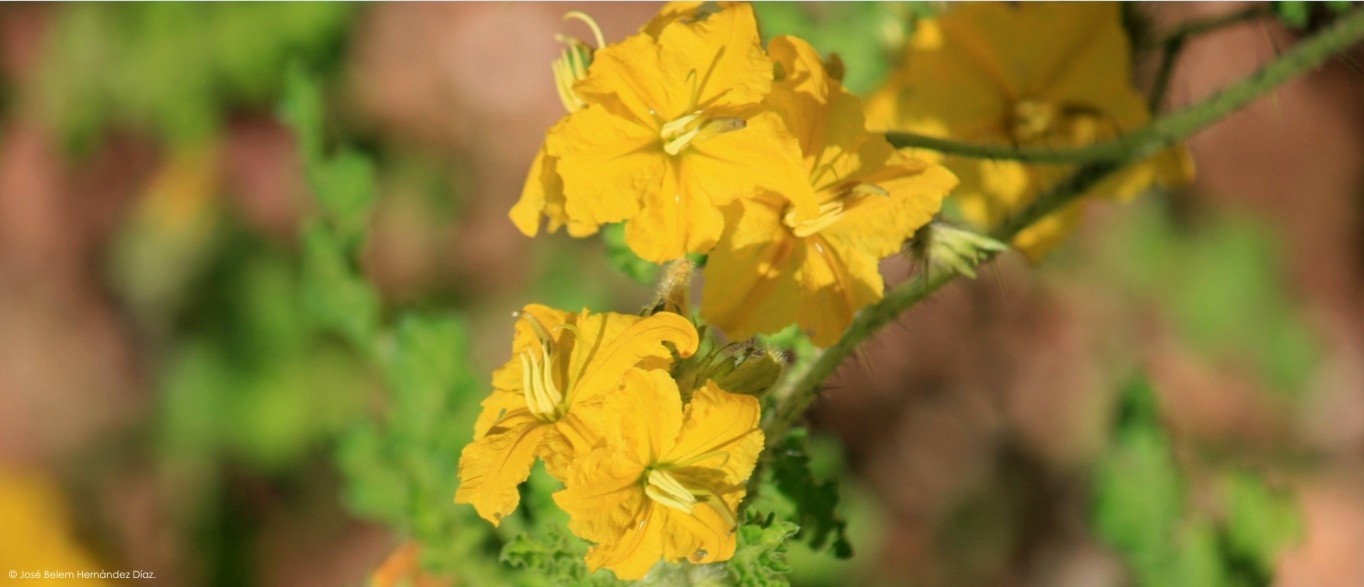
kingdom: Plantae
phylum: Tracheophyta
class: Magnoliopsida
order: Solanales
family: Solanaceae
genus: Solanum
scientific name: Solanum angustifolium
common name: Buffalobur nightshade
